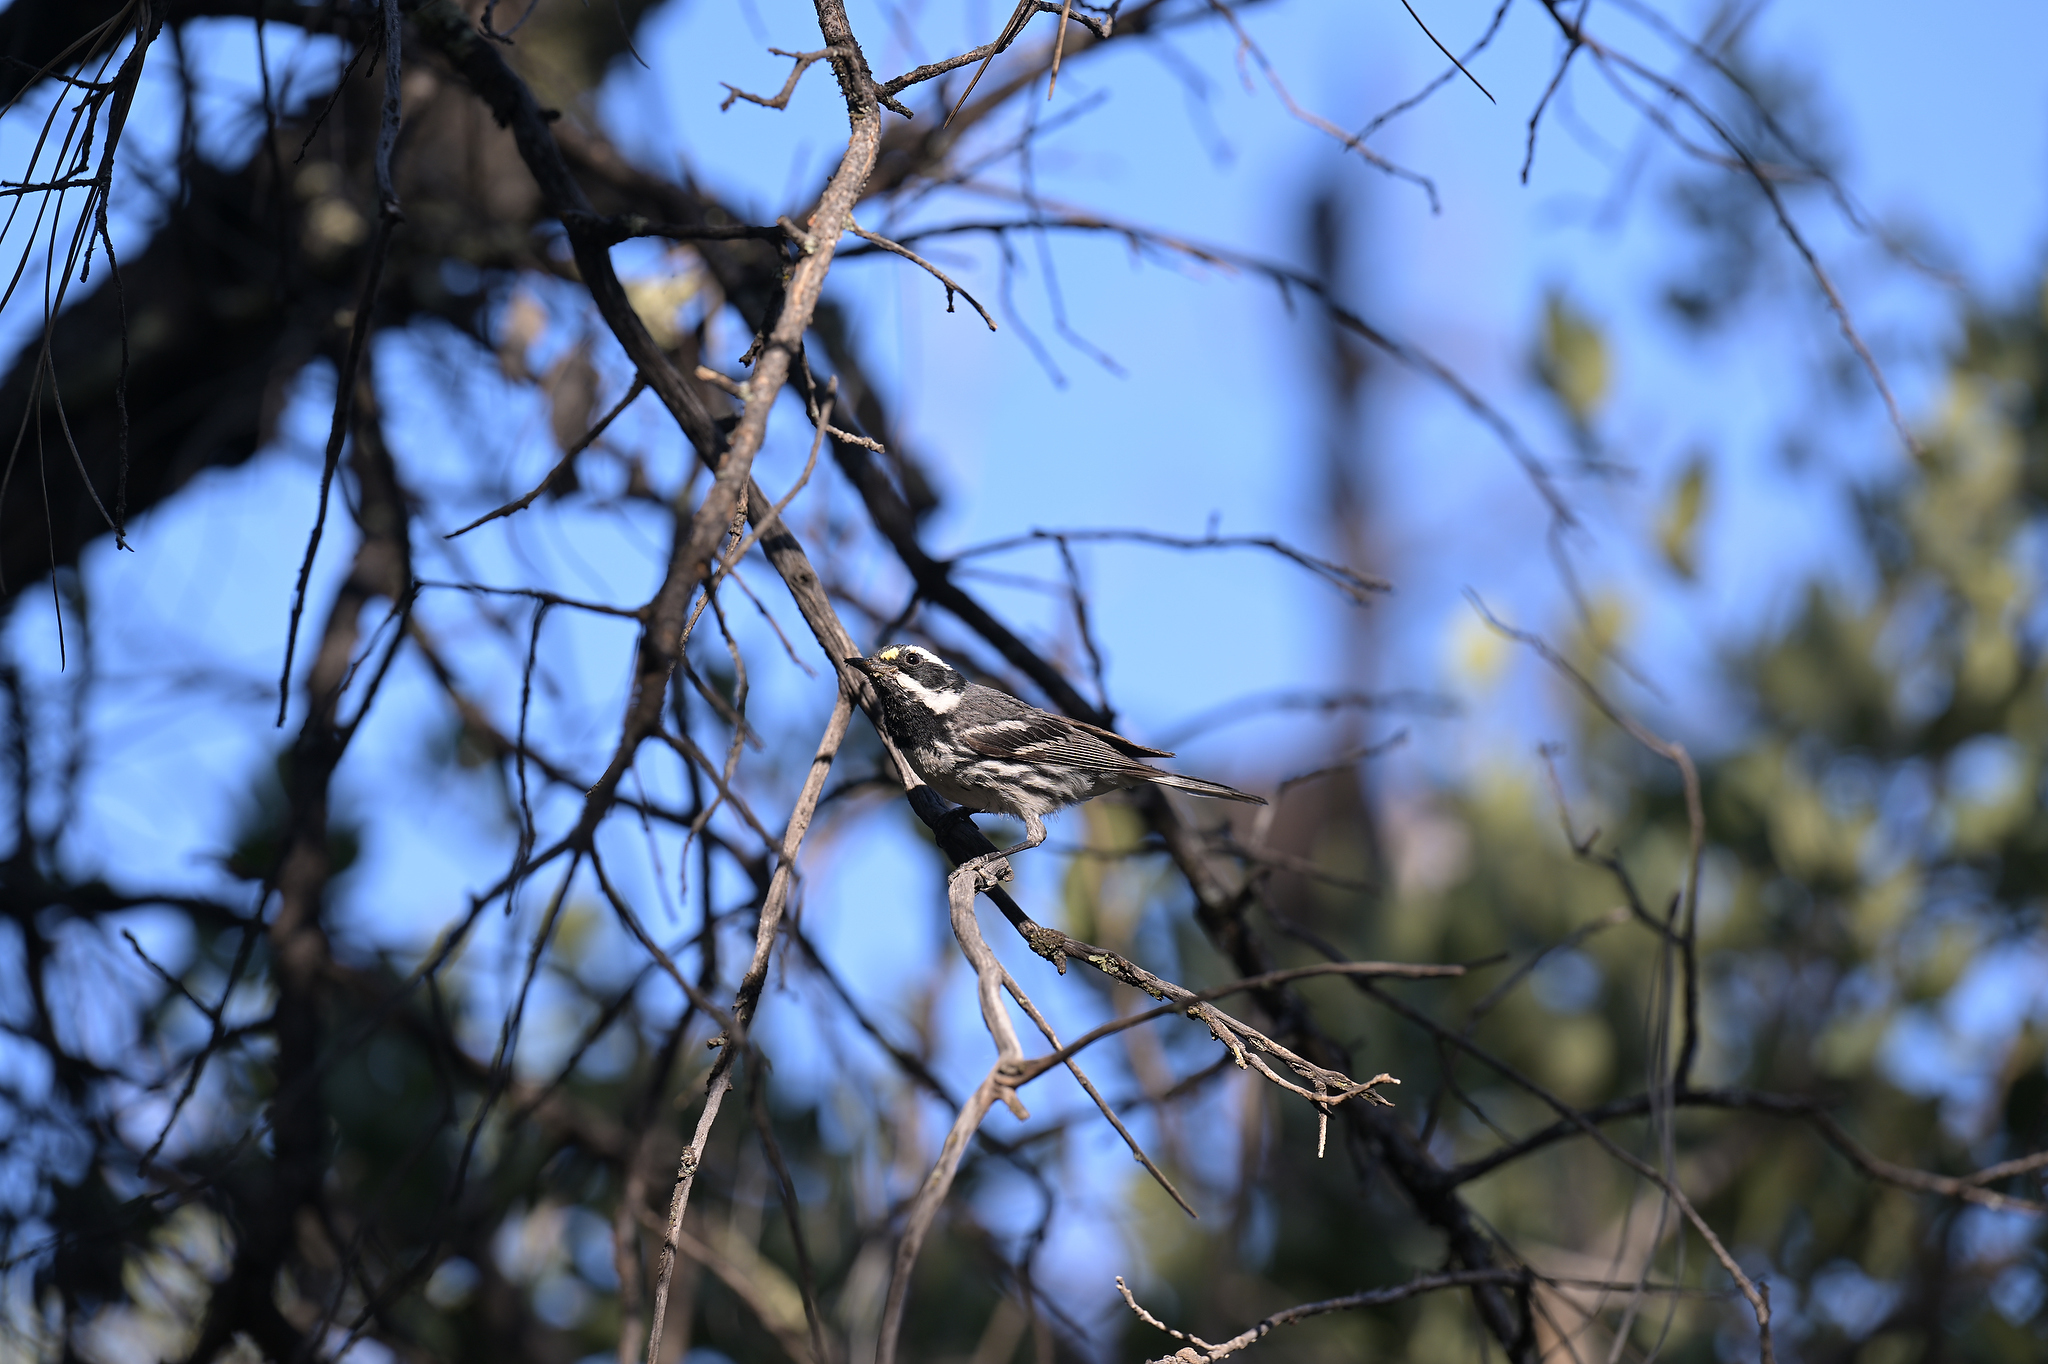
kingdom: Animalia
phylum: Chordata
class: Aves
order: Passeriformes
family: Parulidae
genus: Setophaga
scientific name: Setophaga nigrescens
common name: Black-throated gray warbler
